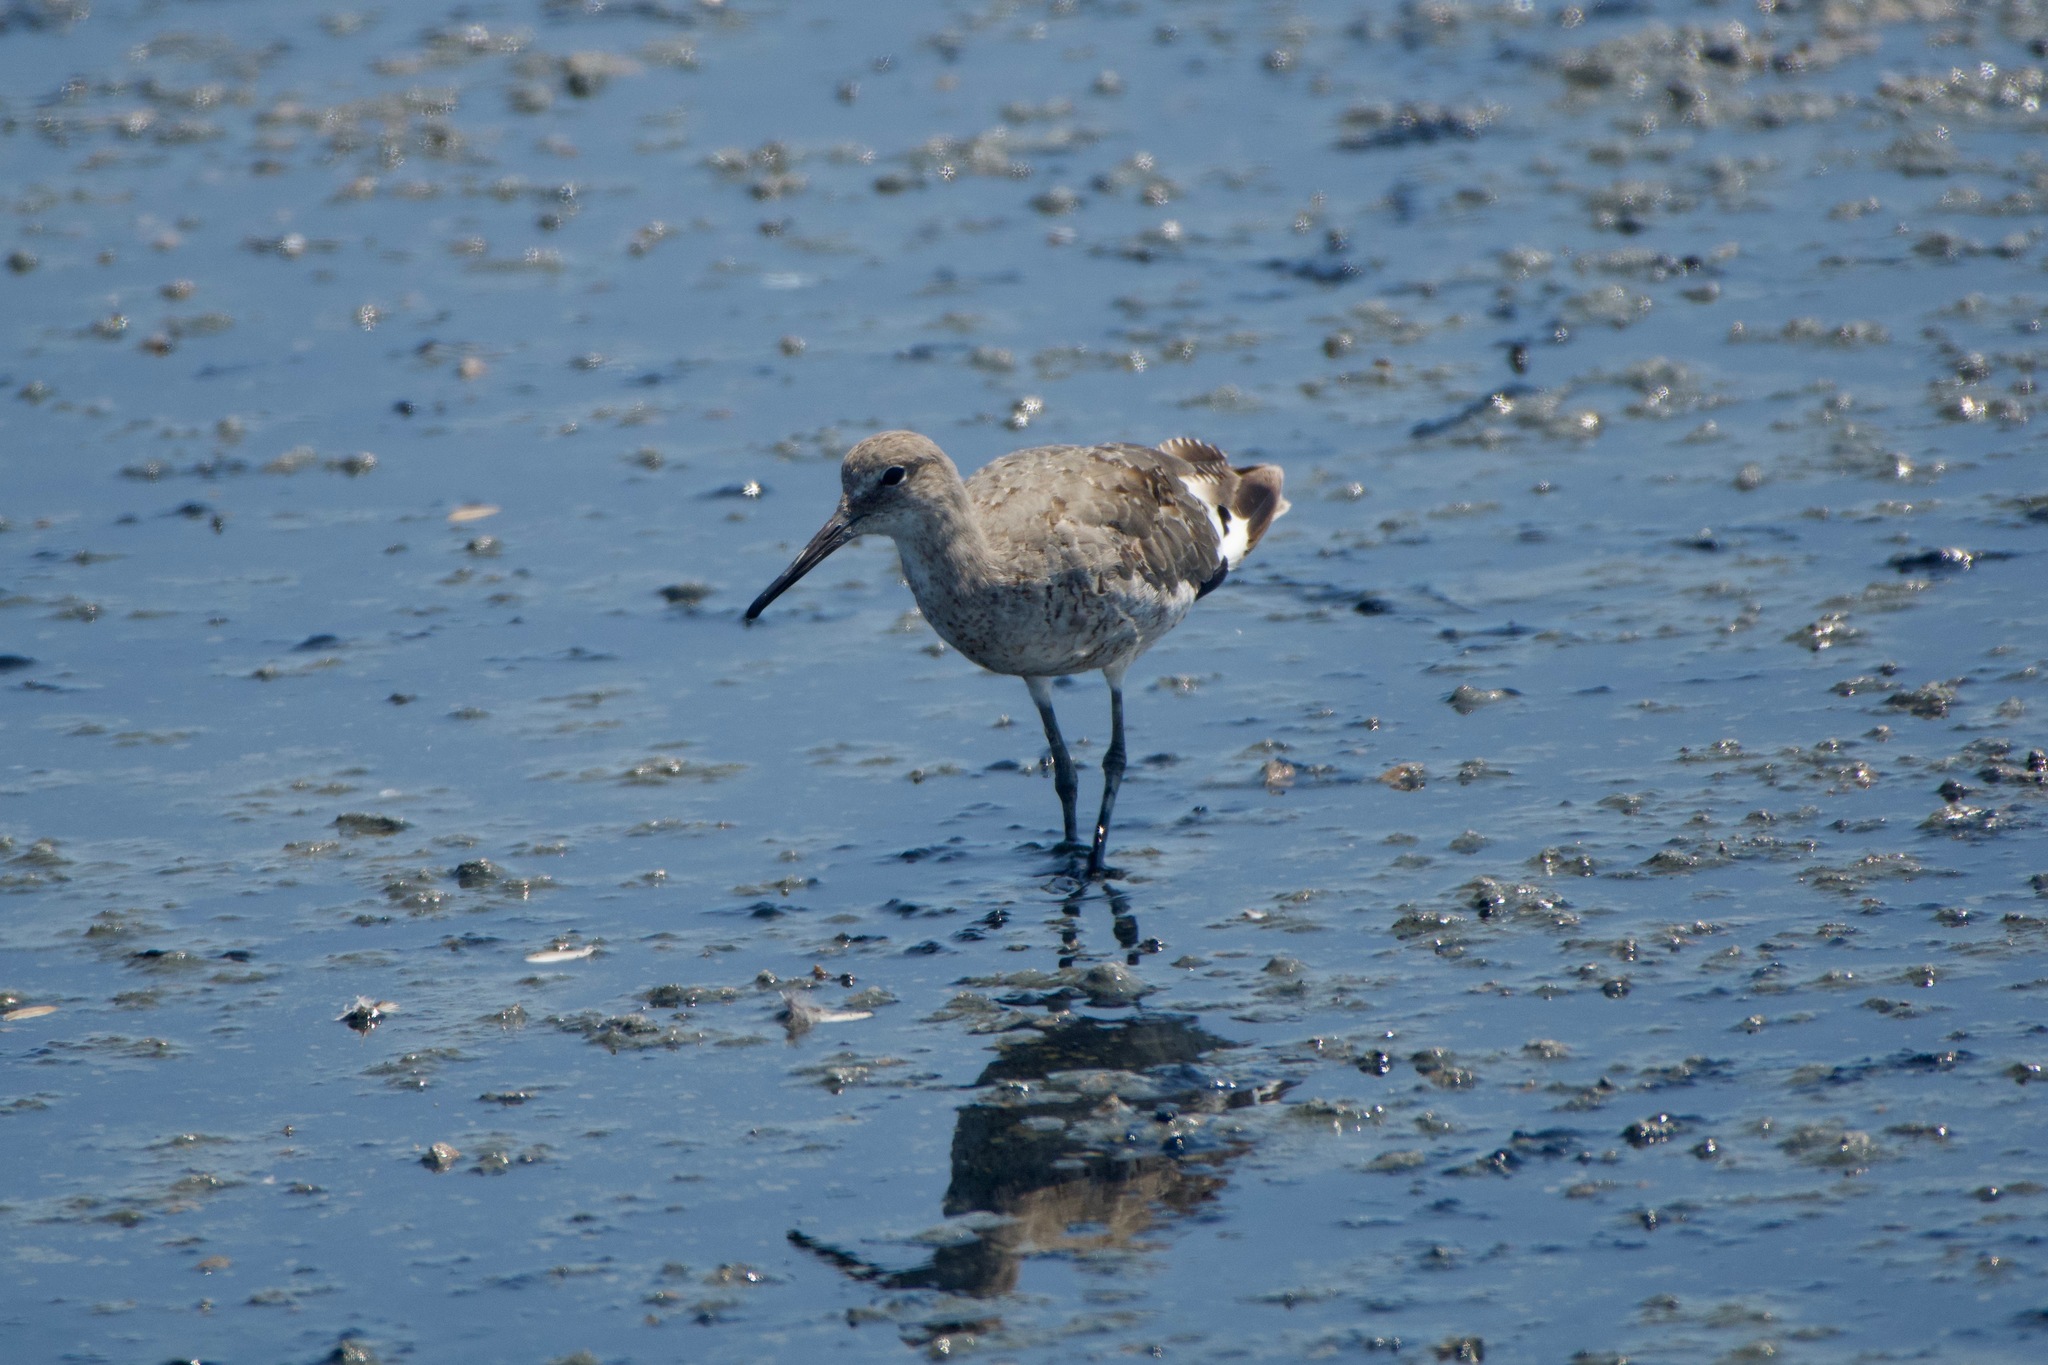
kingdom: Animalia
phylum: Chordata
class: Aves
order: Charadriiformes
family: Scolopacidae
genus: Tringa
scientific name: Tringa semipalmata
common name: Willet
